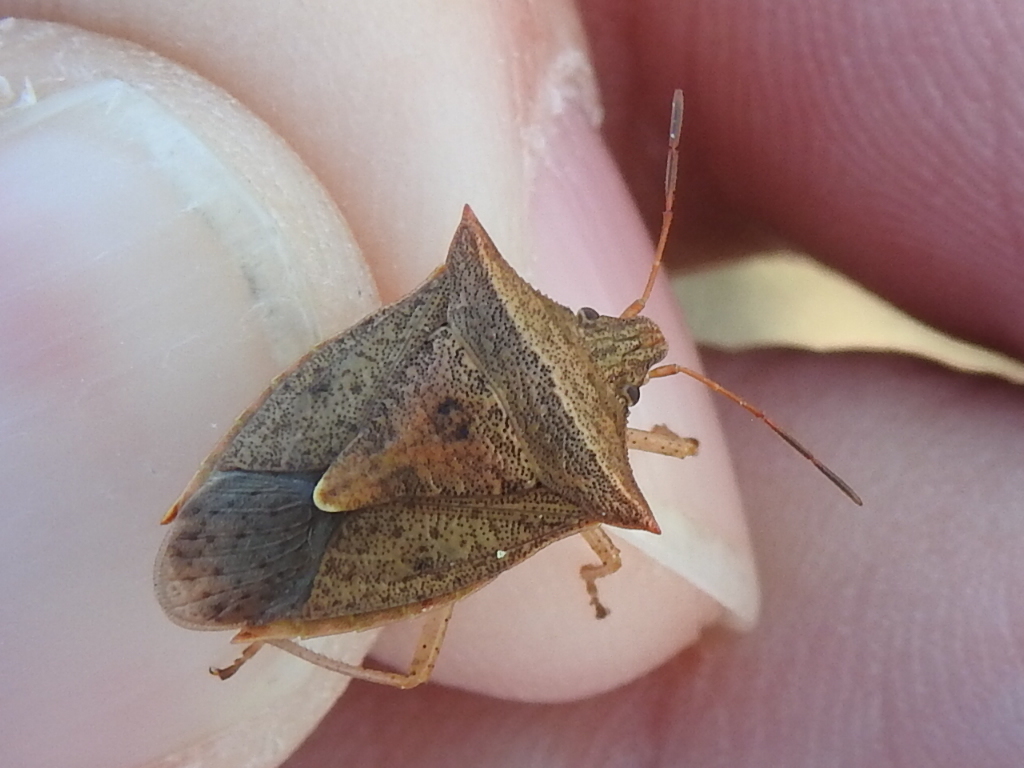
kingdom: Animalia
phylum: Arthropoda
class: Insecta
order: Hemiptera
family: Pentatomidae
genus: Euschistus
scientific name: Euschistus ictericus
